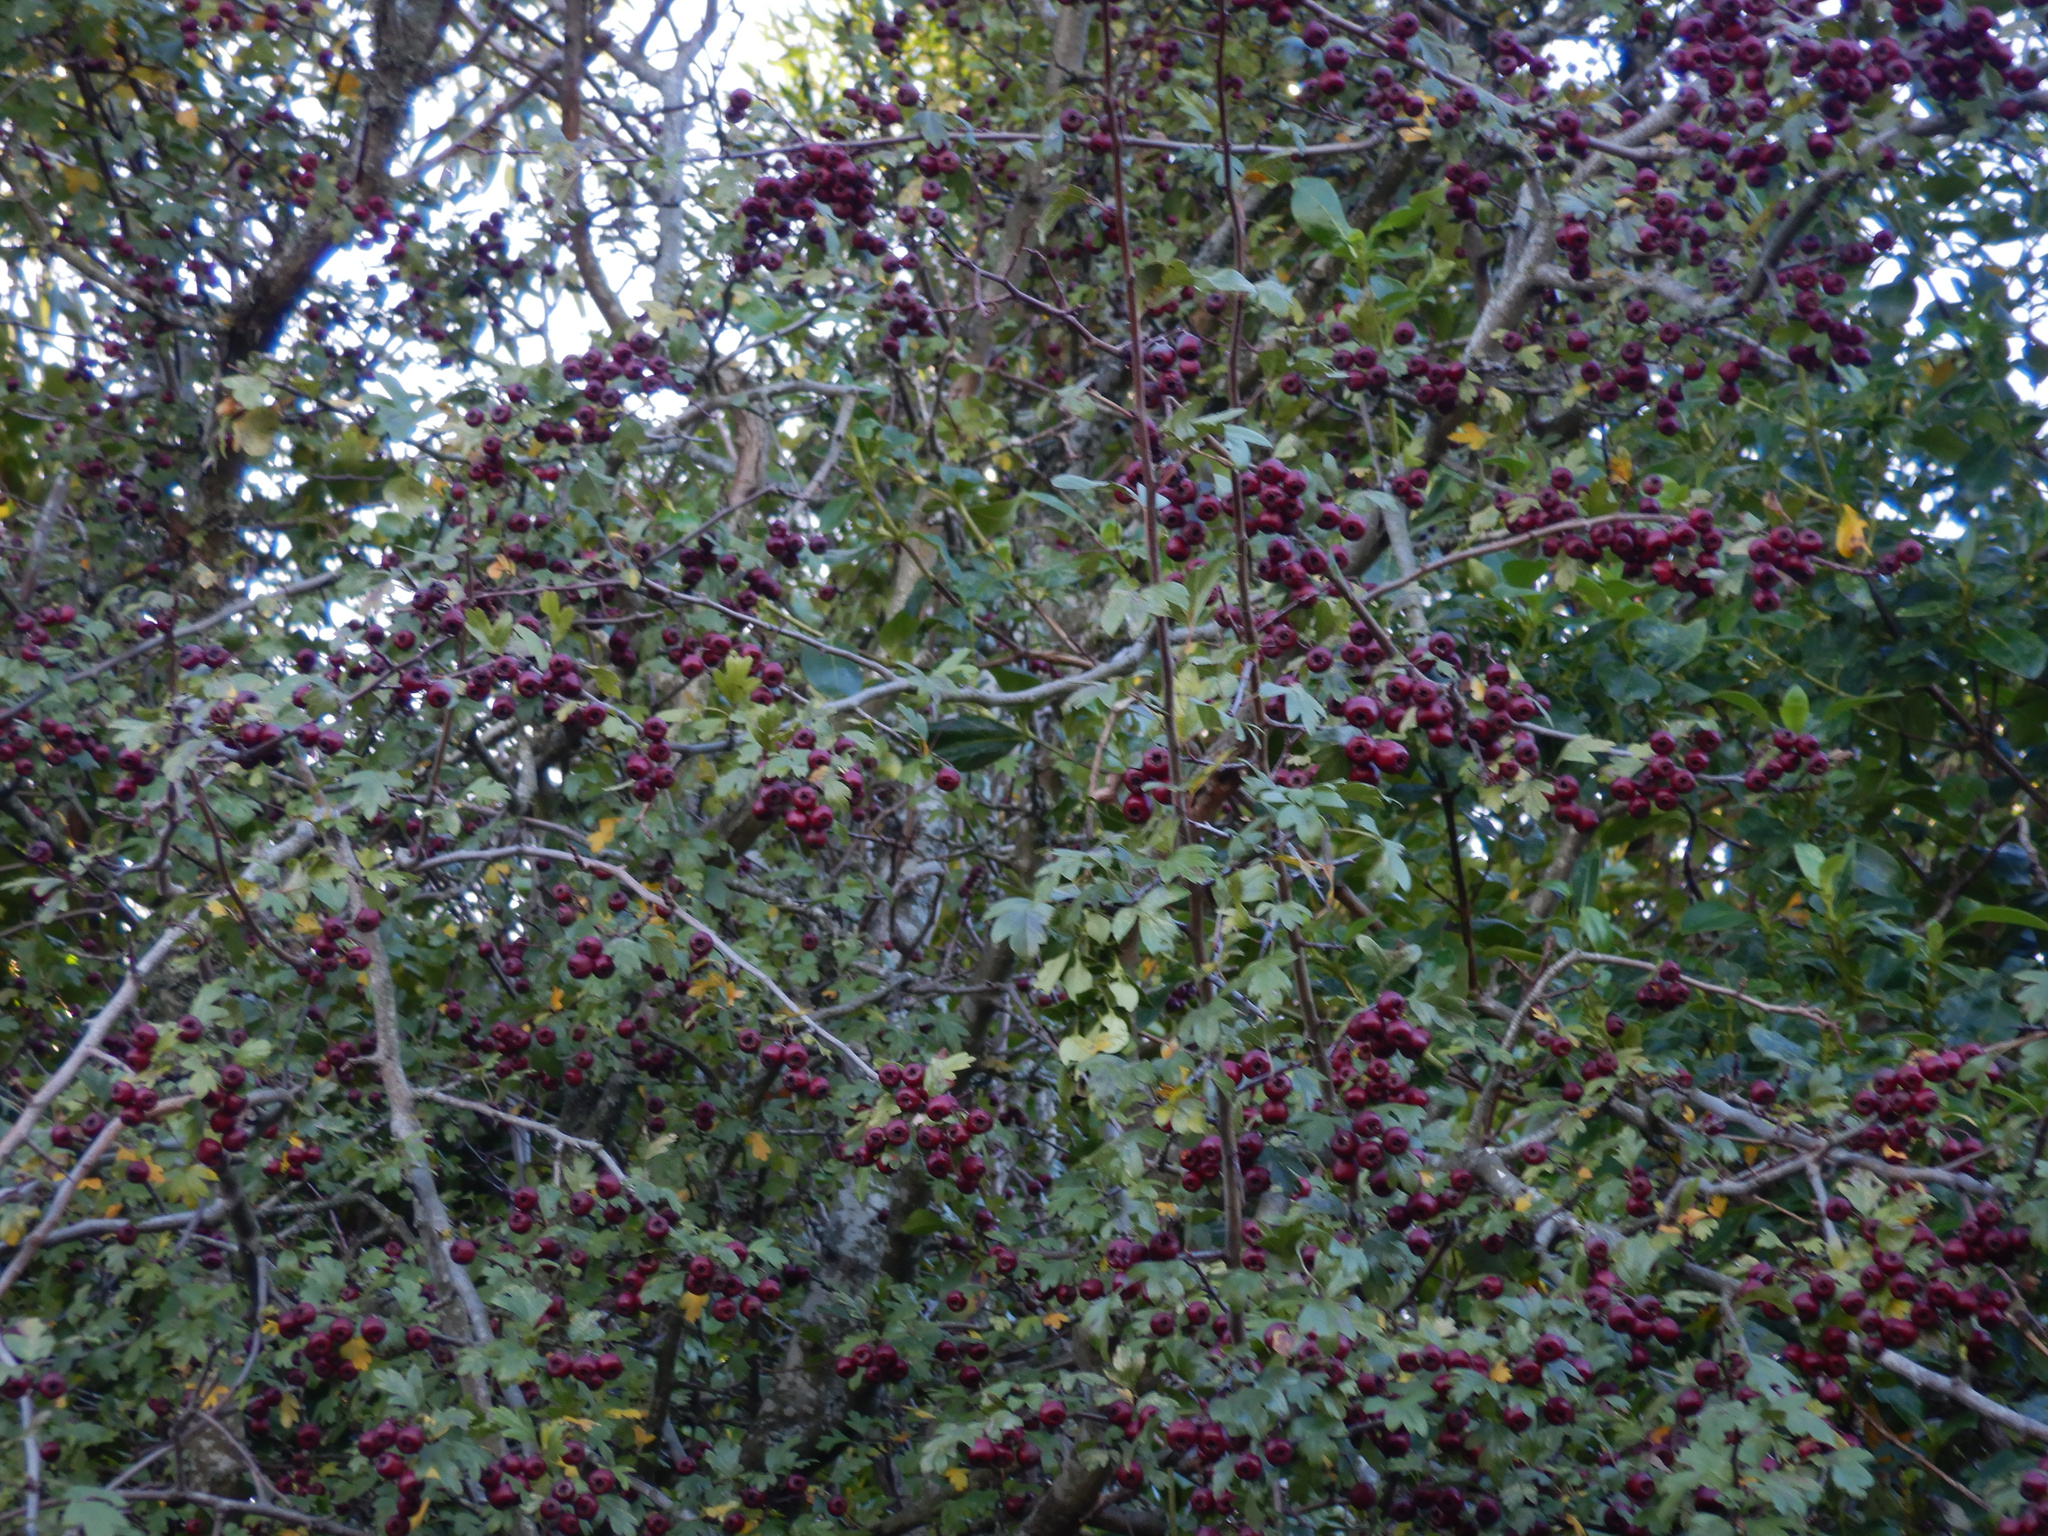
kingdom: Plantae
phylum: Tracheophyta
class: Magnoliopsida
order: Rosales
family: Rosaceae
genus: Crataegus
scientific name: Crataegus monogyna
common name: Hawthorn
